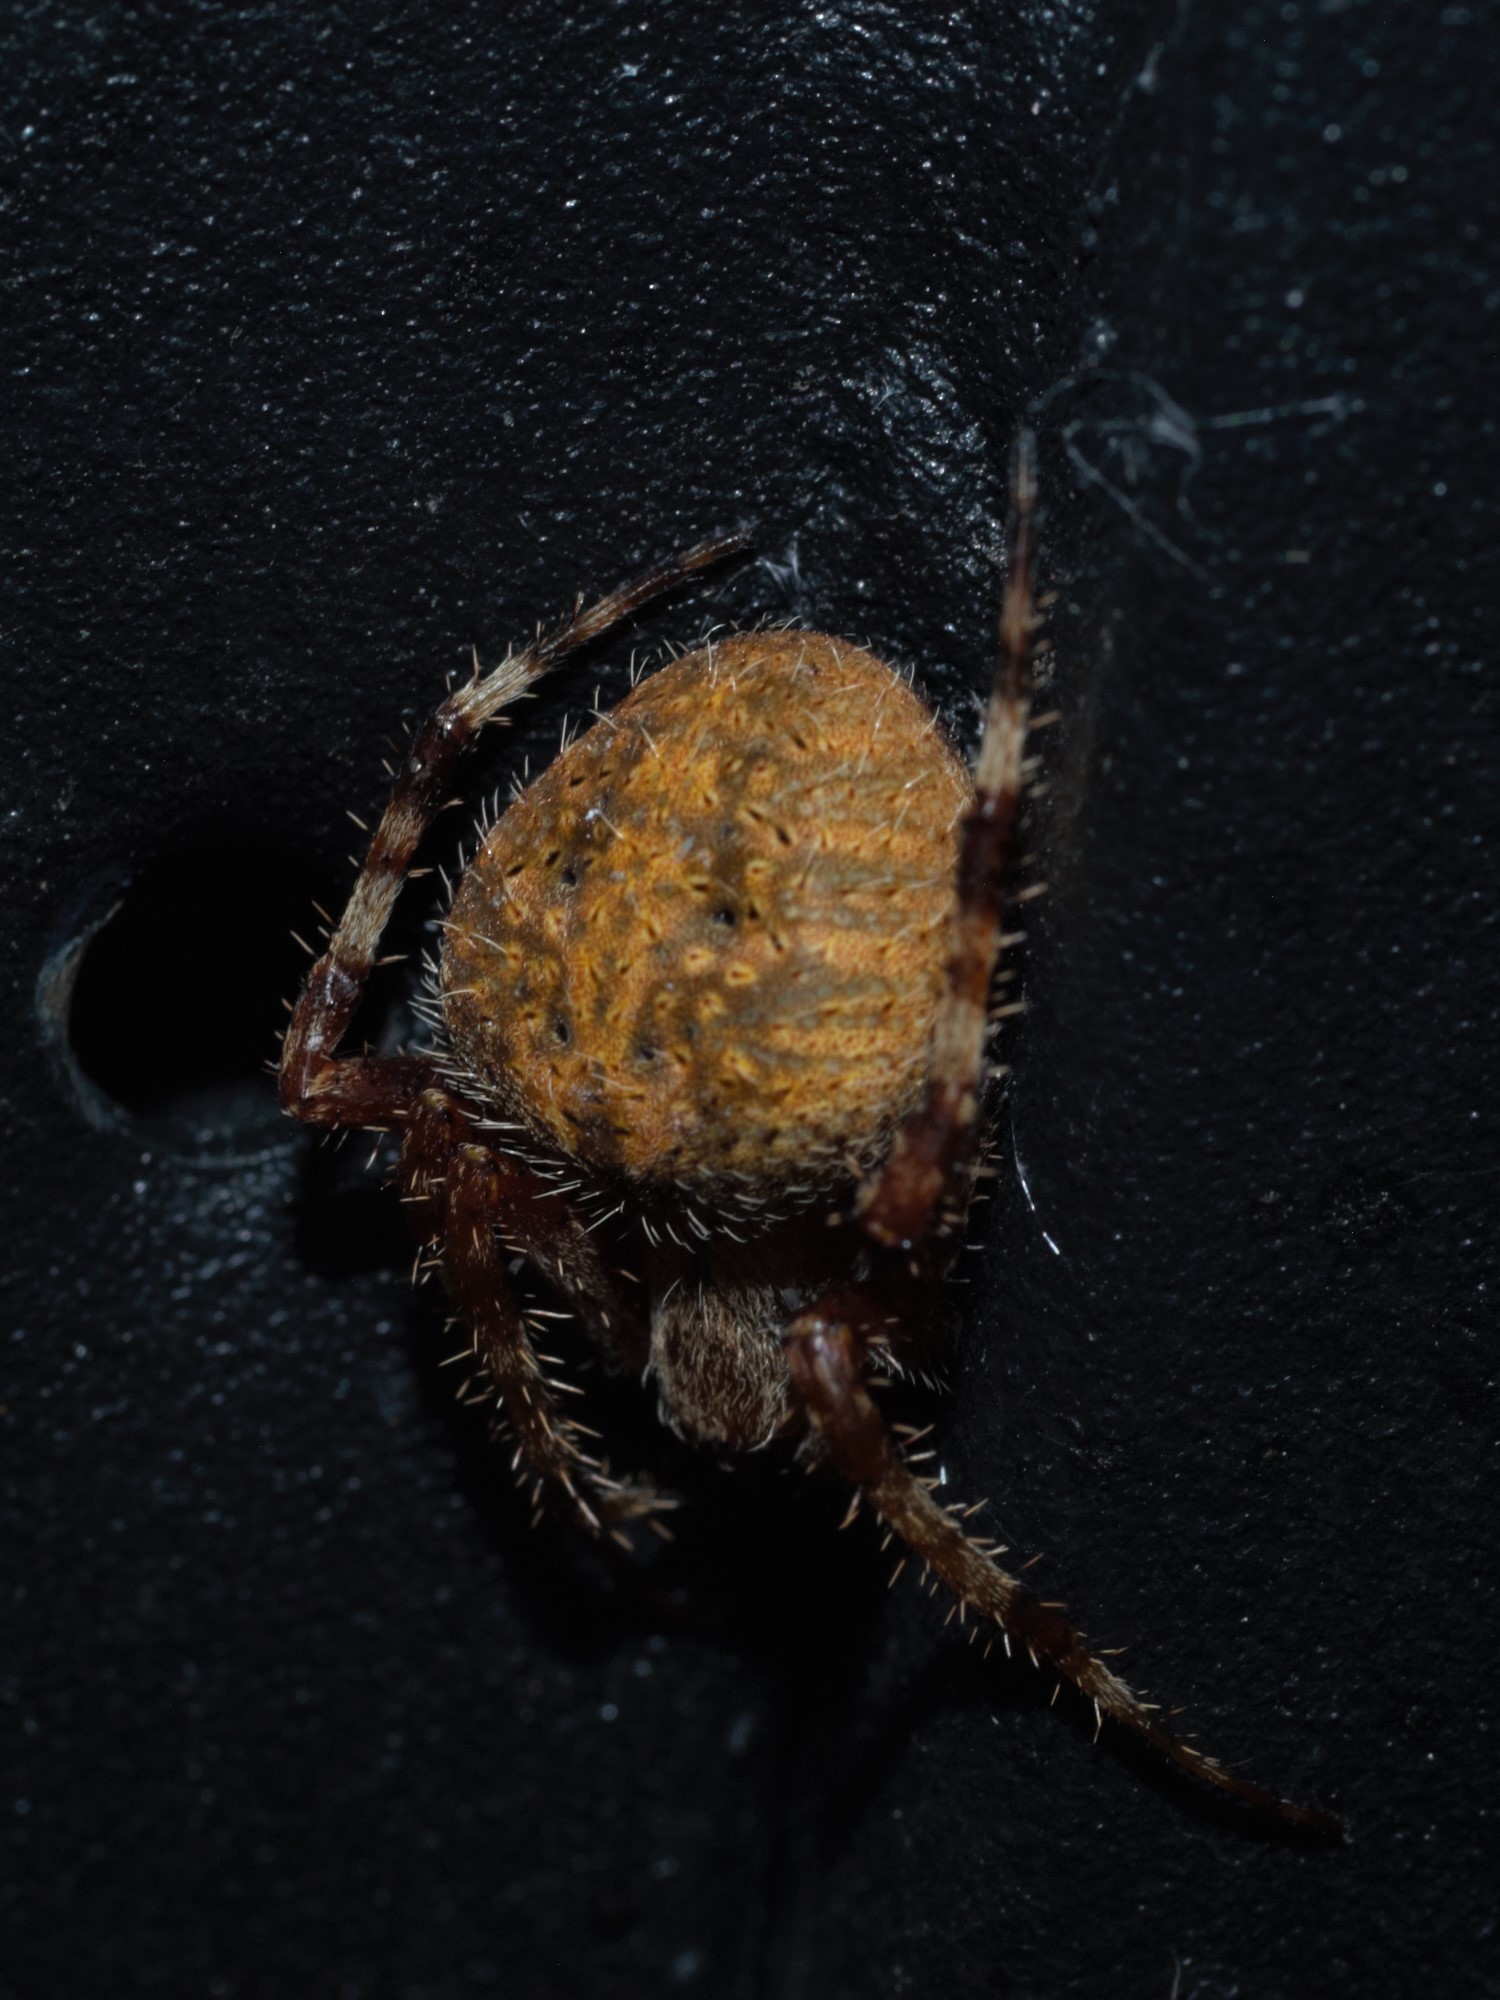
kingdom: Animalia
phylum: Arthropoda
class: Arachnida
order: Araneae
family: Araneidae
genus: Neoscona
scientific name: Neoscona crucifera
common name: Spotted orbweaver
